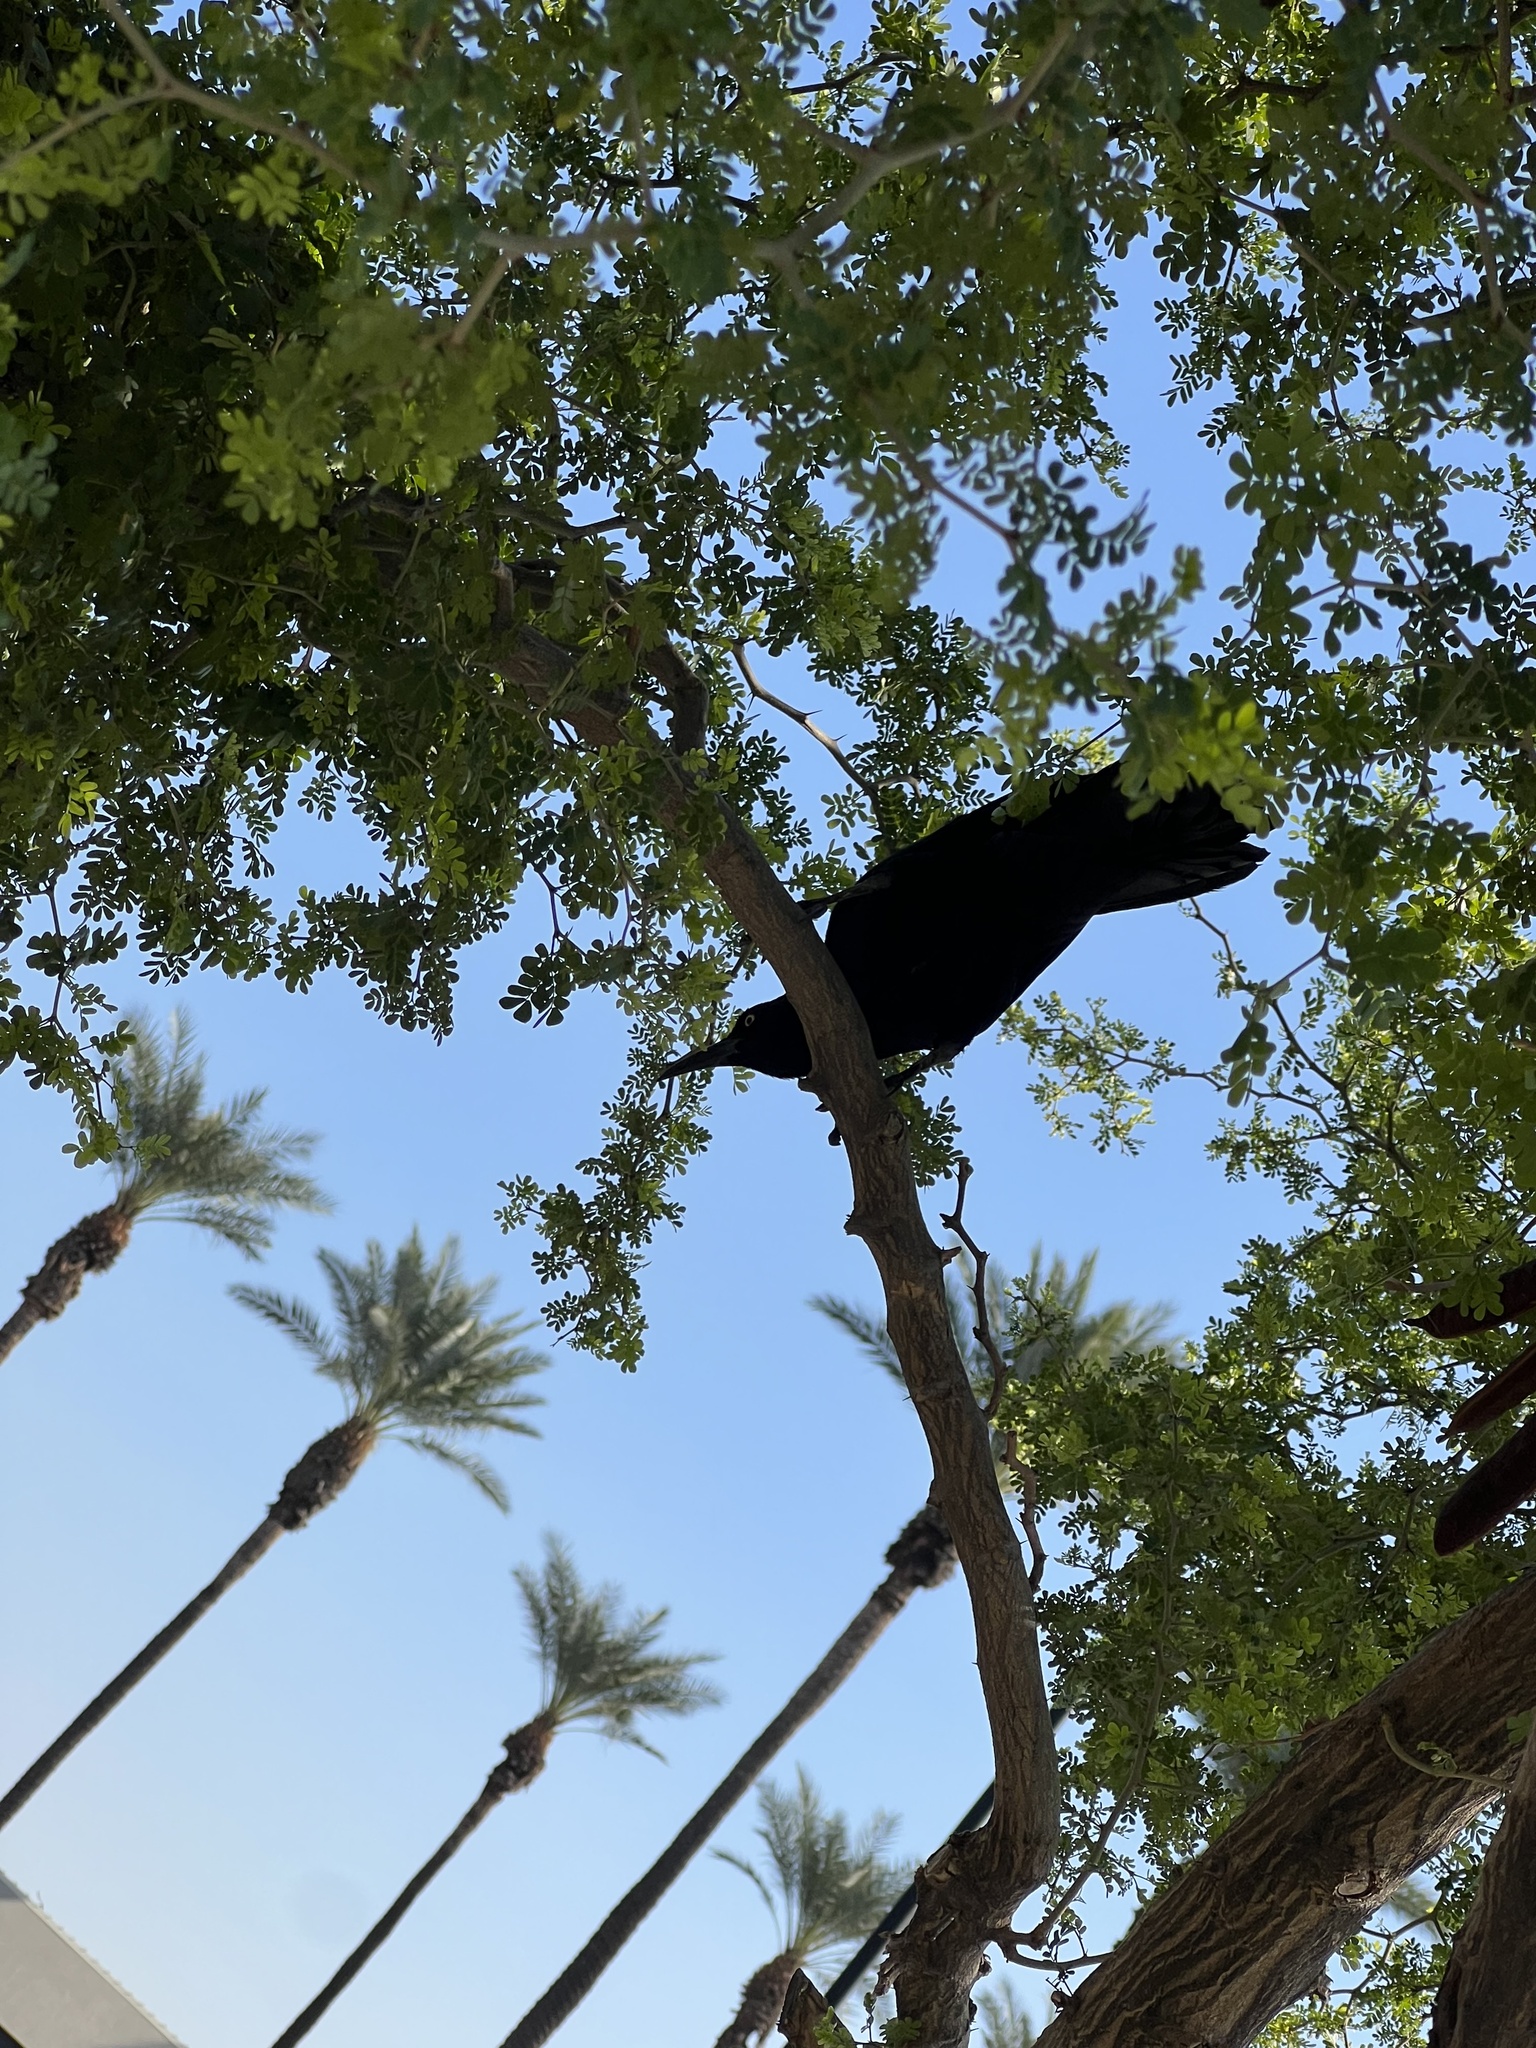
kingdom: Animalia
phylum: Chordata
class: Aves
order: Passeriformes
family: Icteridae
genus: Quiscalus
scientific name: Quiscalus mexicanus
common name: Great-tailed grackle
